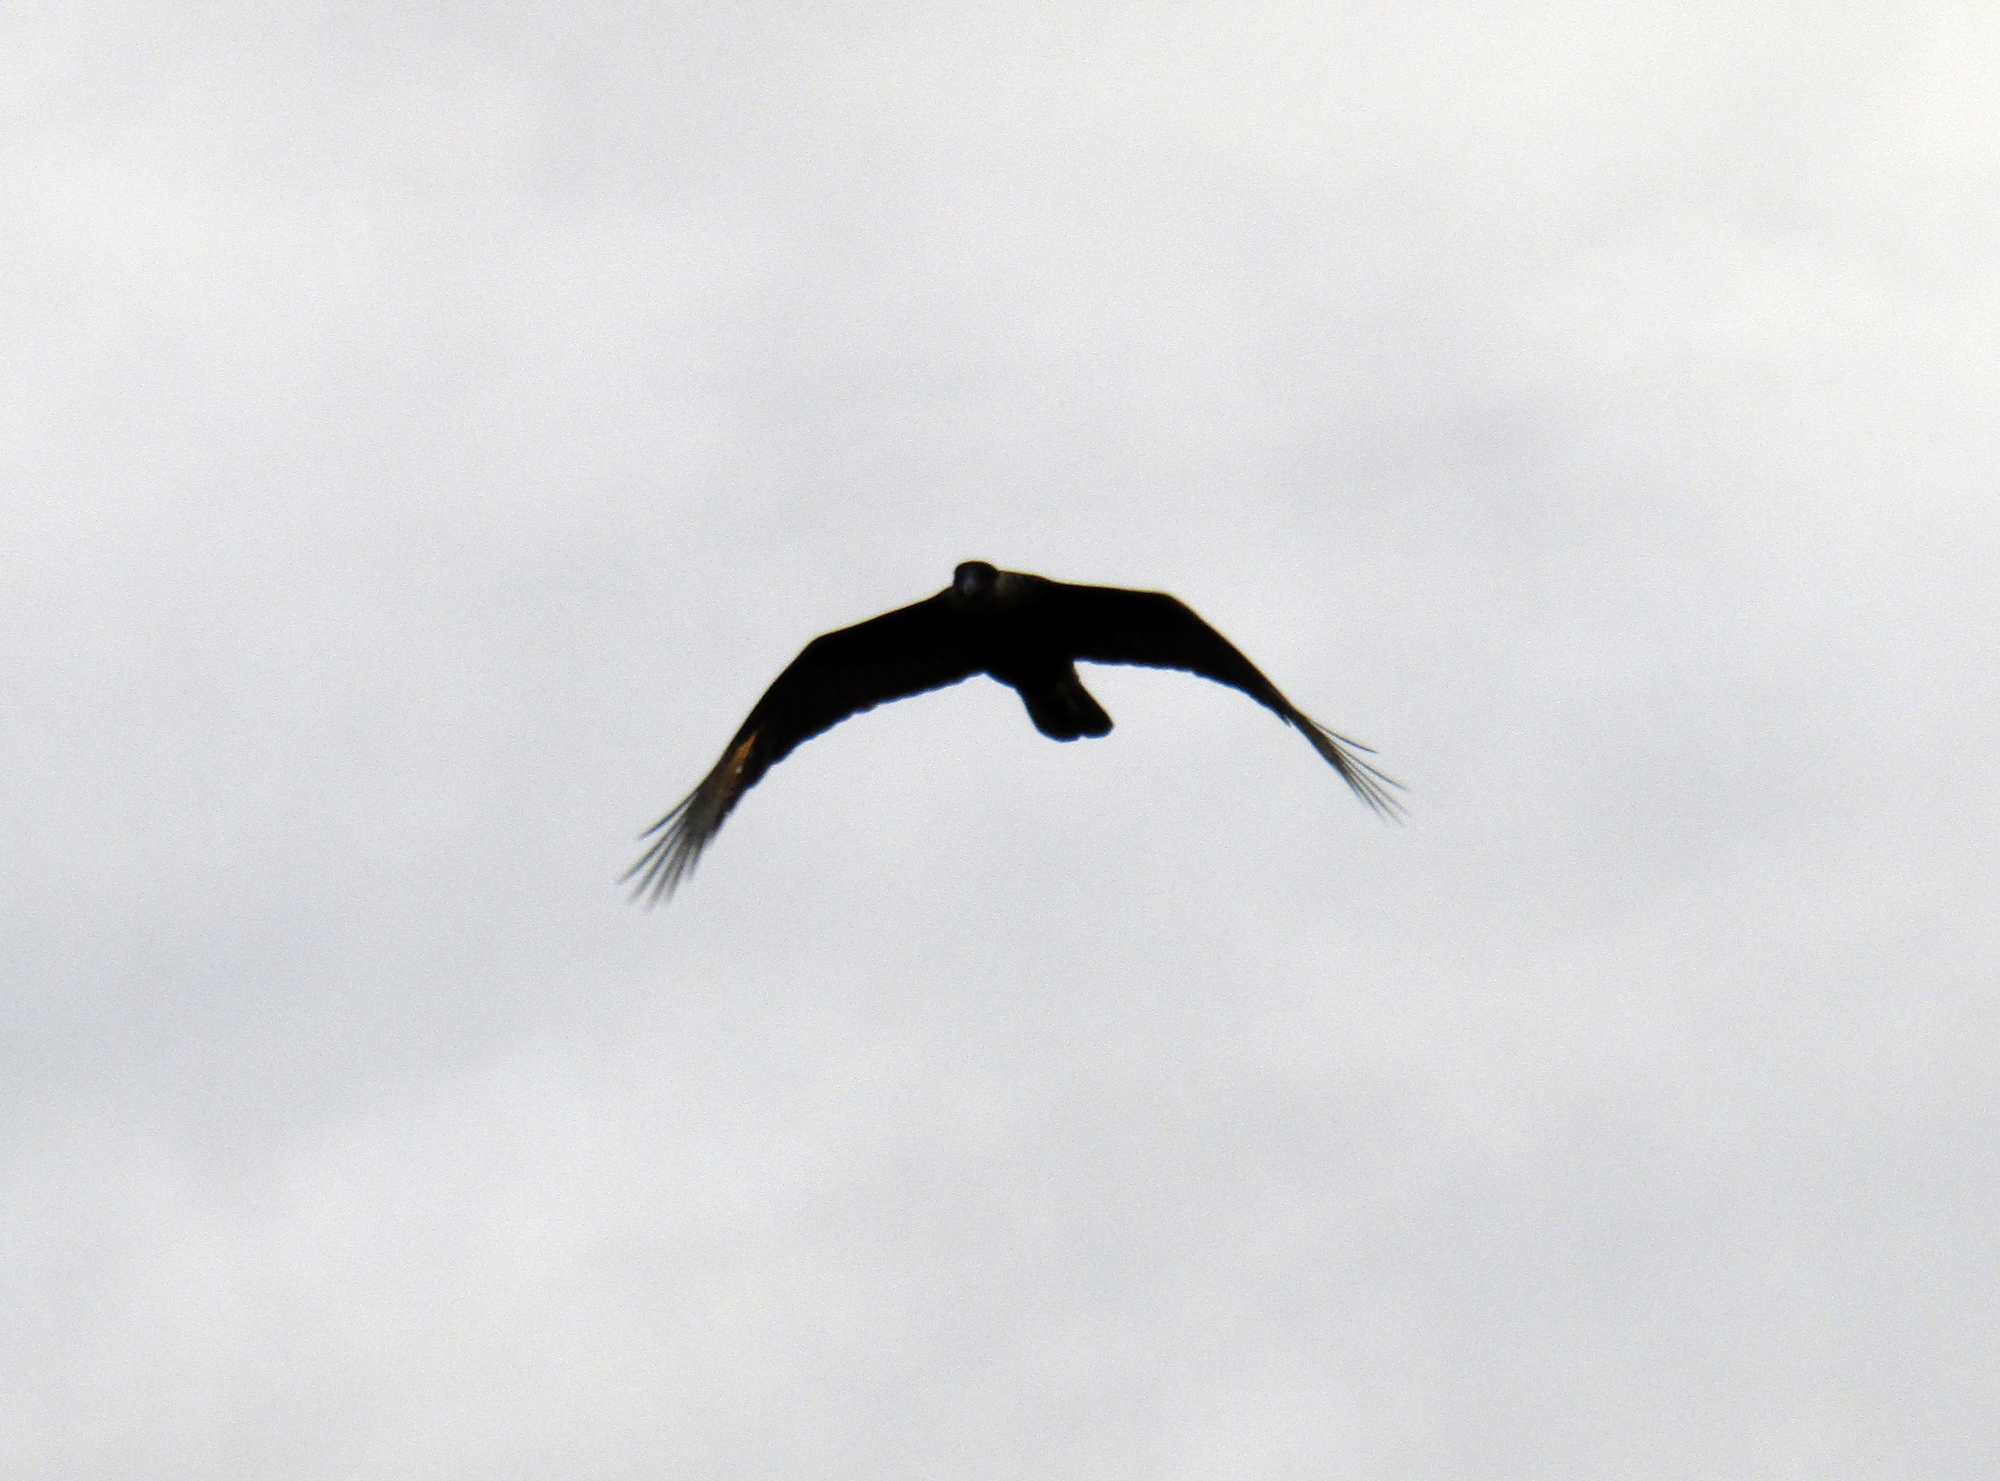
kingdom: Animalia
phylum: Chordata
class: Aves
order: Falconiformes
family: Falconidae
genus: Caracara
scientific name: Caracara plancus
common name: Southern caracara
